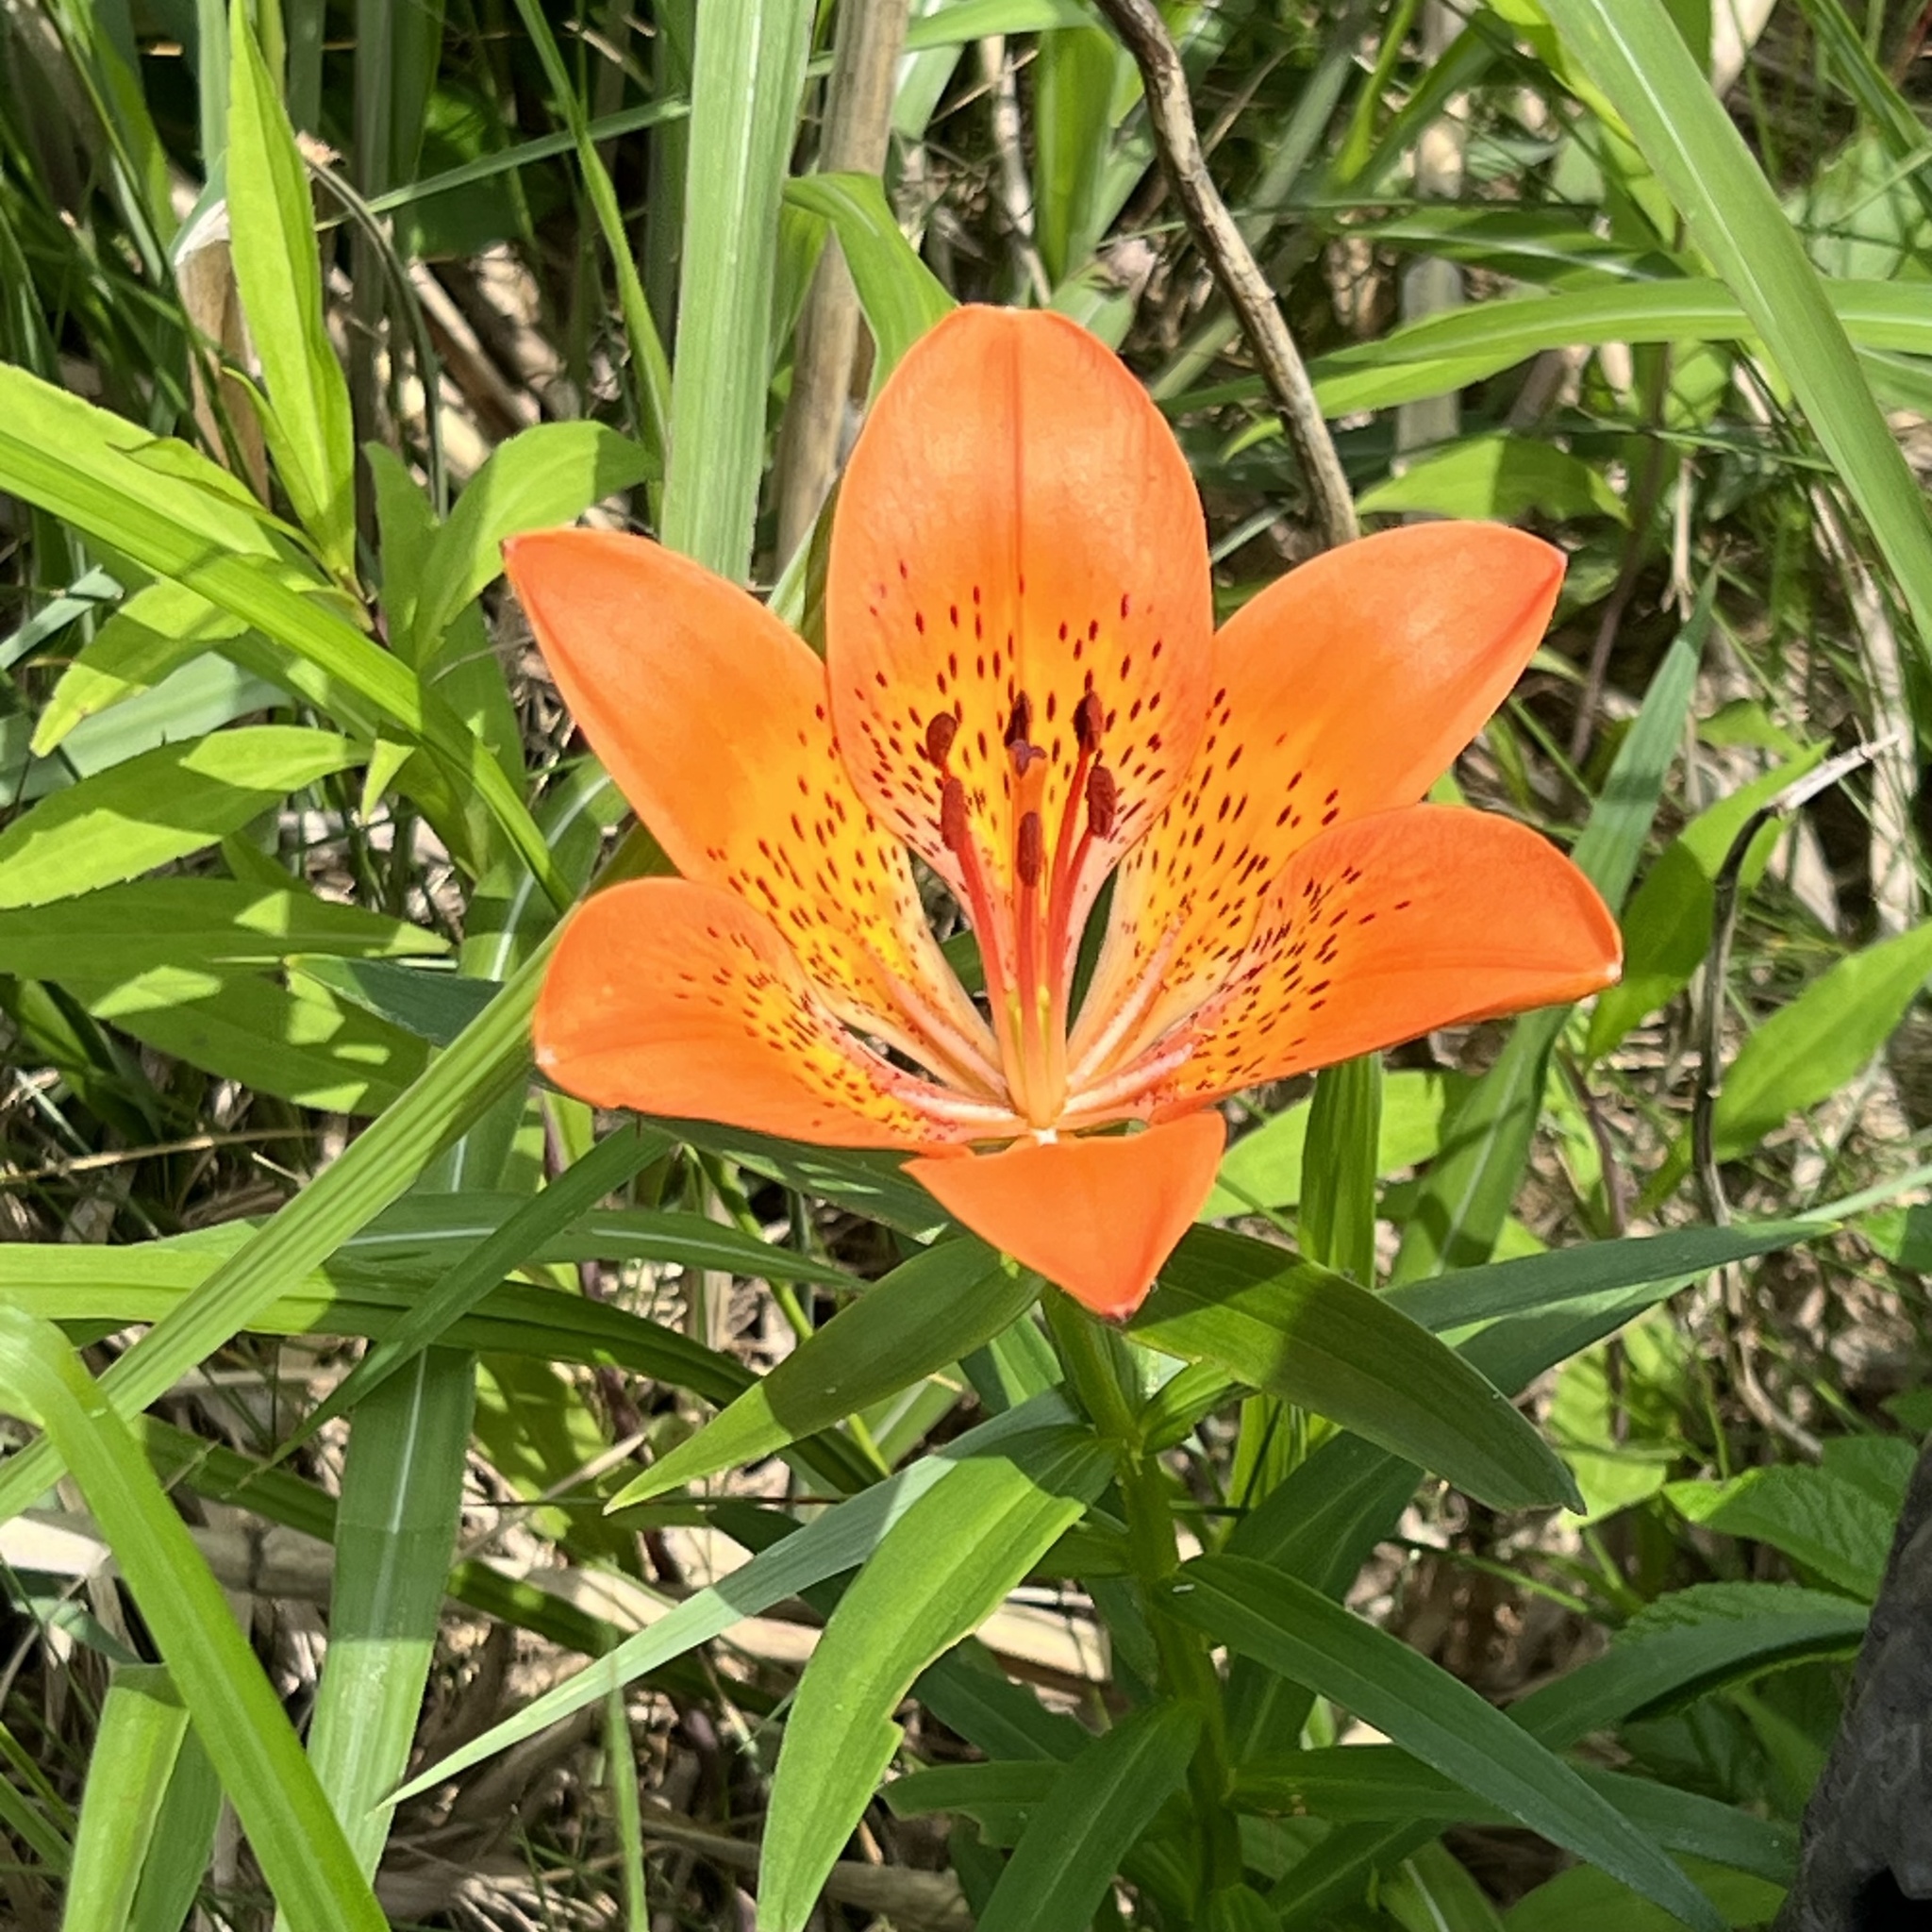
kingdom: Plantae
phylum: Tracheophyta
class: Liliopsida
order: Liliales
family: Liliaceae
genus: Lilium
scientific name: Lilium pensylvanicum
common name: Candlestick lily
